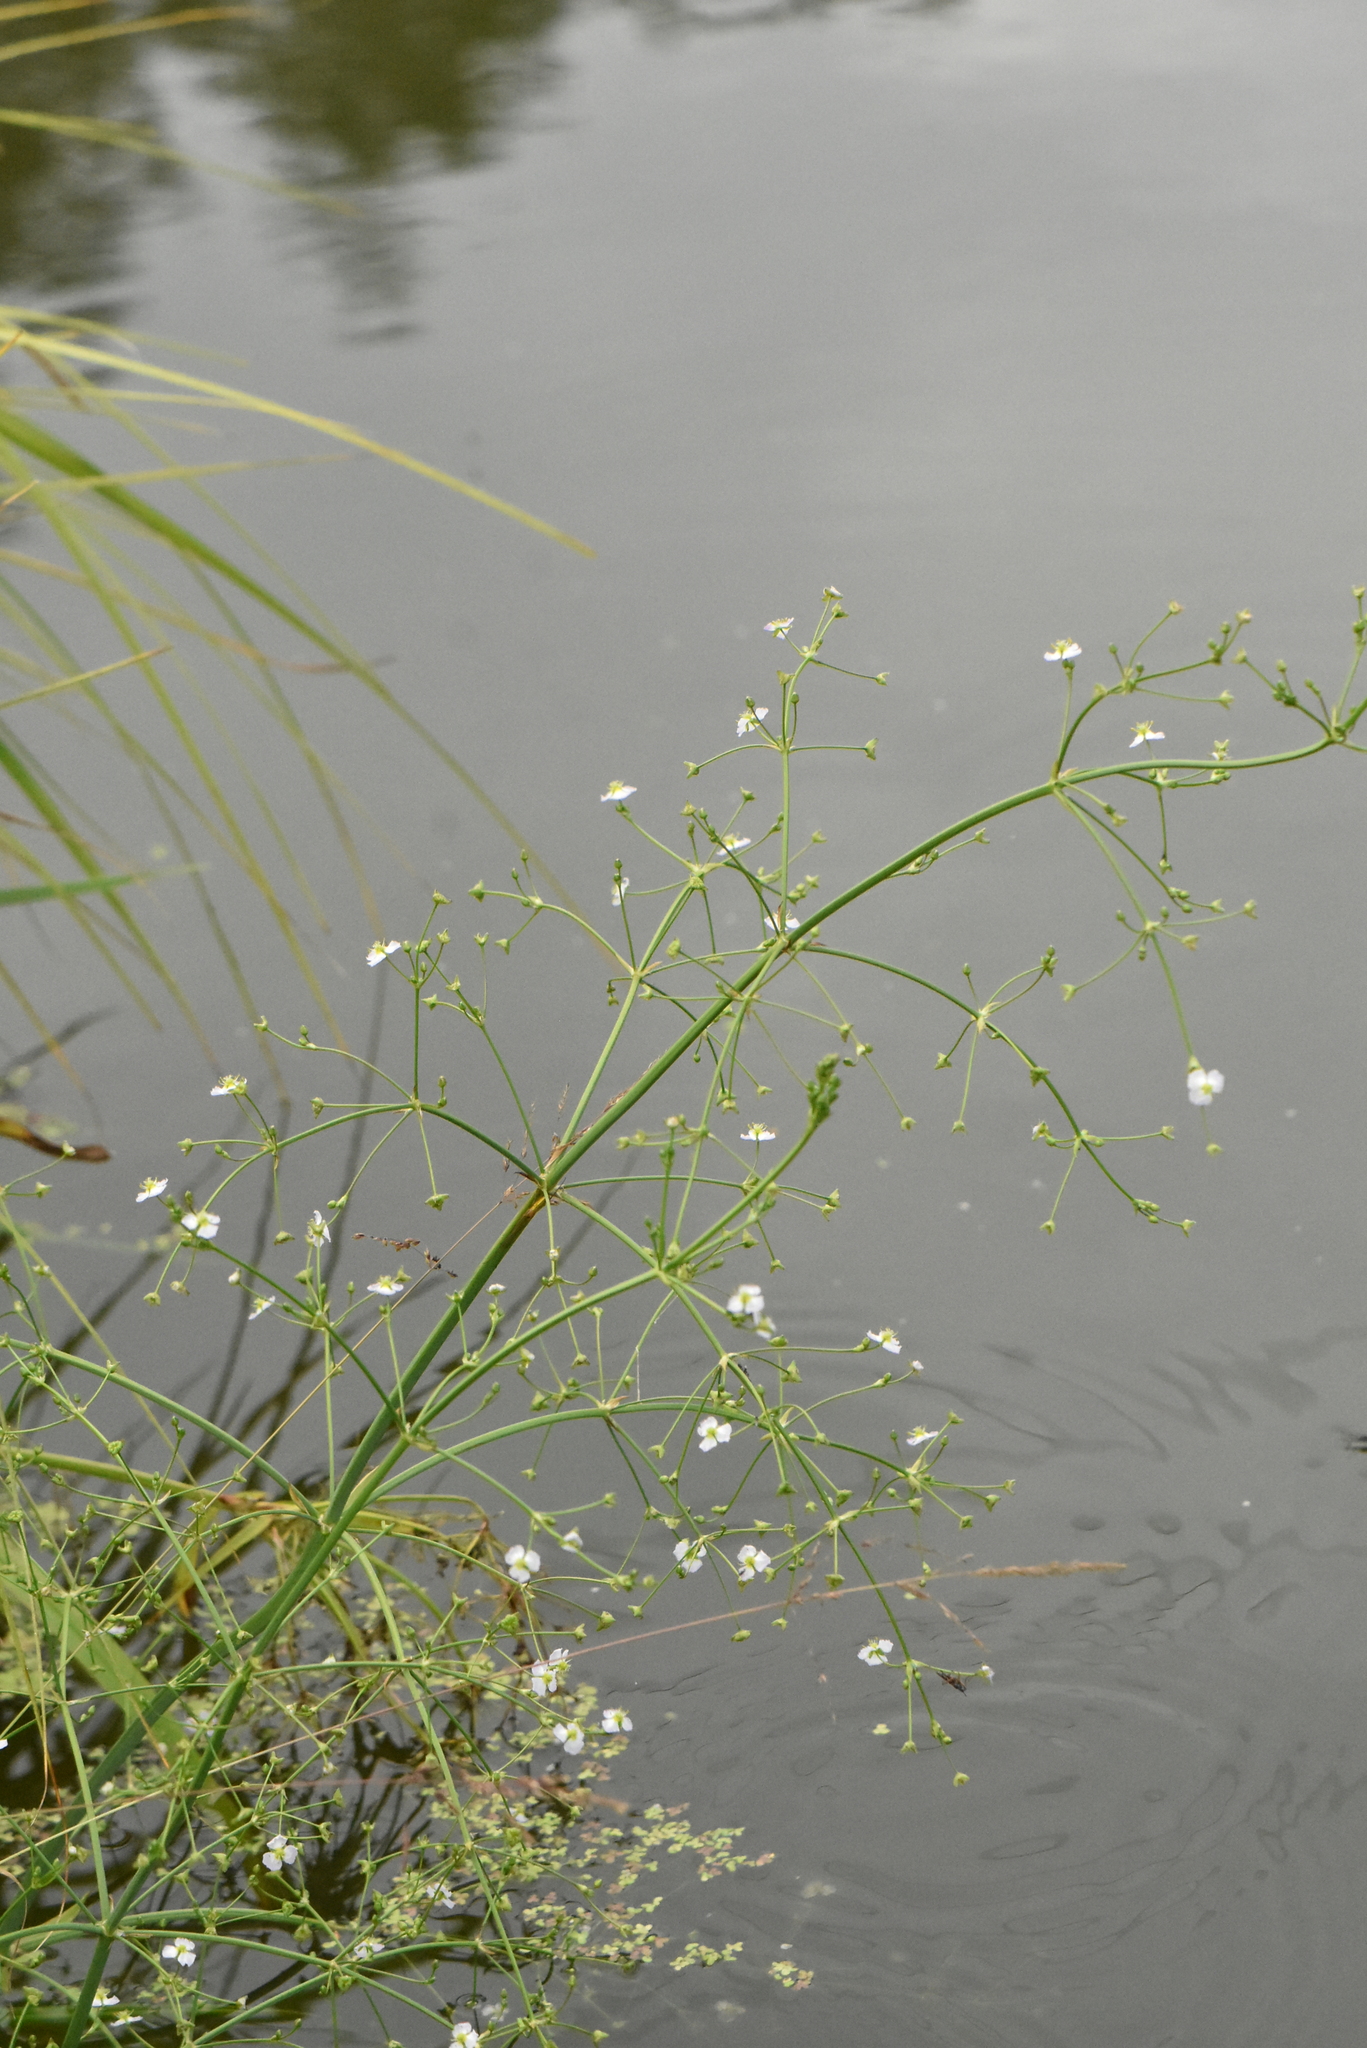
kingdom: Plantae
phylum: Tracheophyta
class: Liliopsida
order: Alismatales
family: Alismataceae
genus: Alisma
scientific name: Alisma plantago-aquatica
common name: Water-plantain
